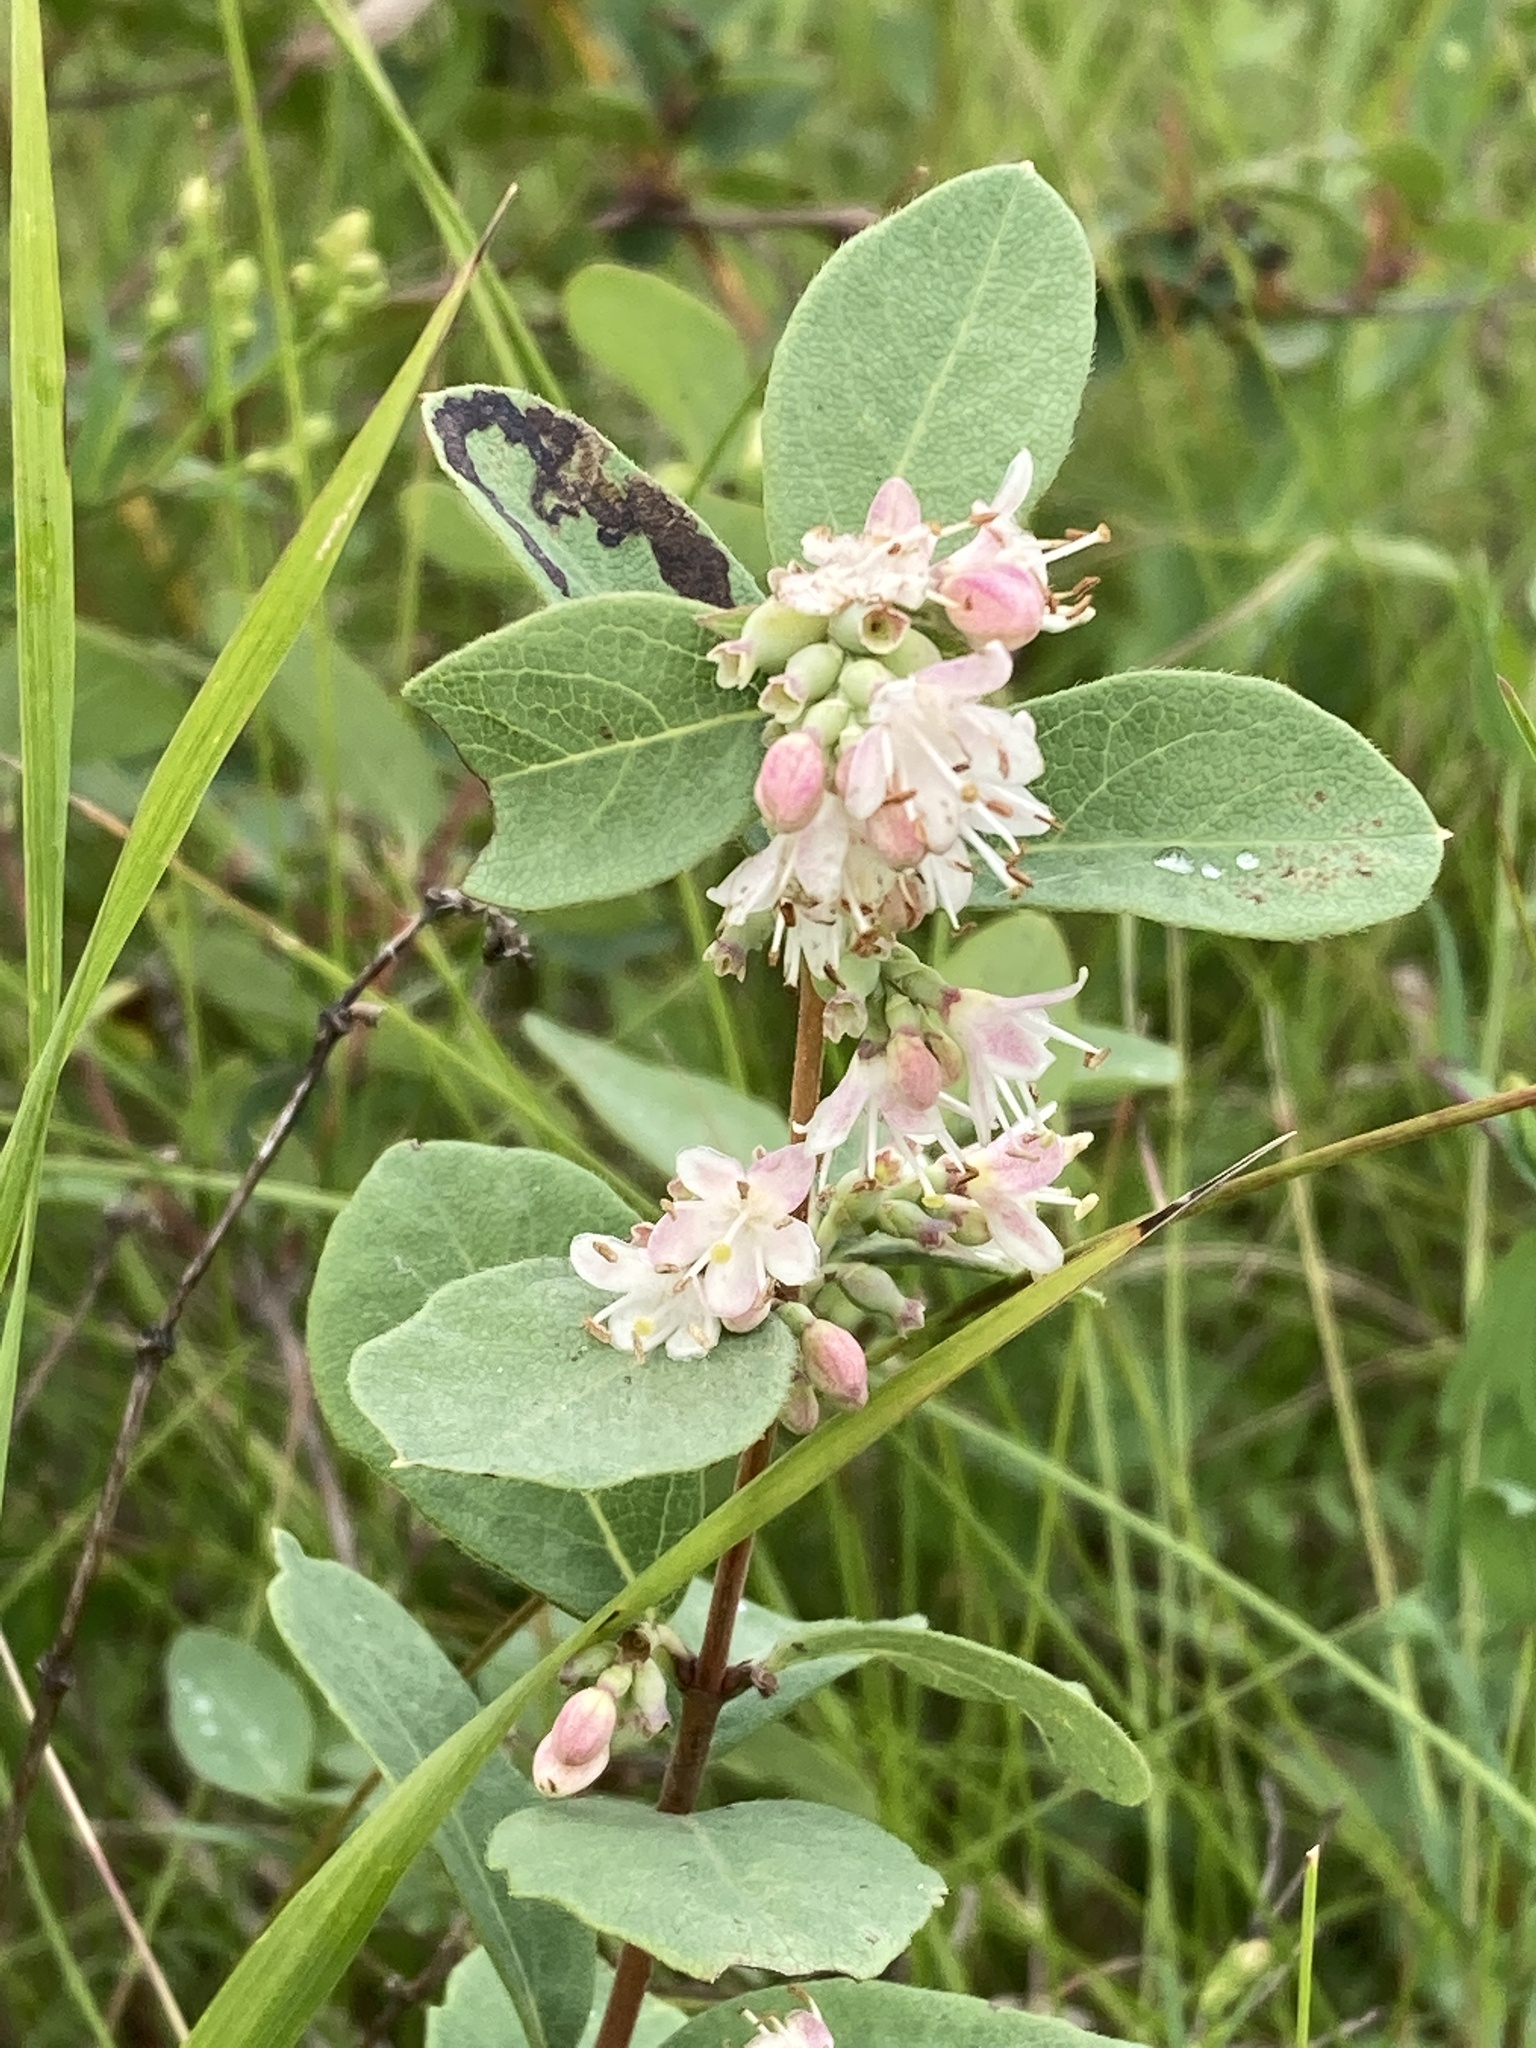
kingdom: Plantae
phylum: Tracheophyta
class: Magnoliopsida
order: Dipsacales
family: Caprifoliaceae
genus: Symphoricarpos
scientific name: Symphoricarpos occidentalis
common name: Wolfberry
